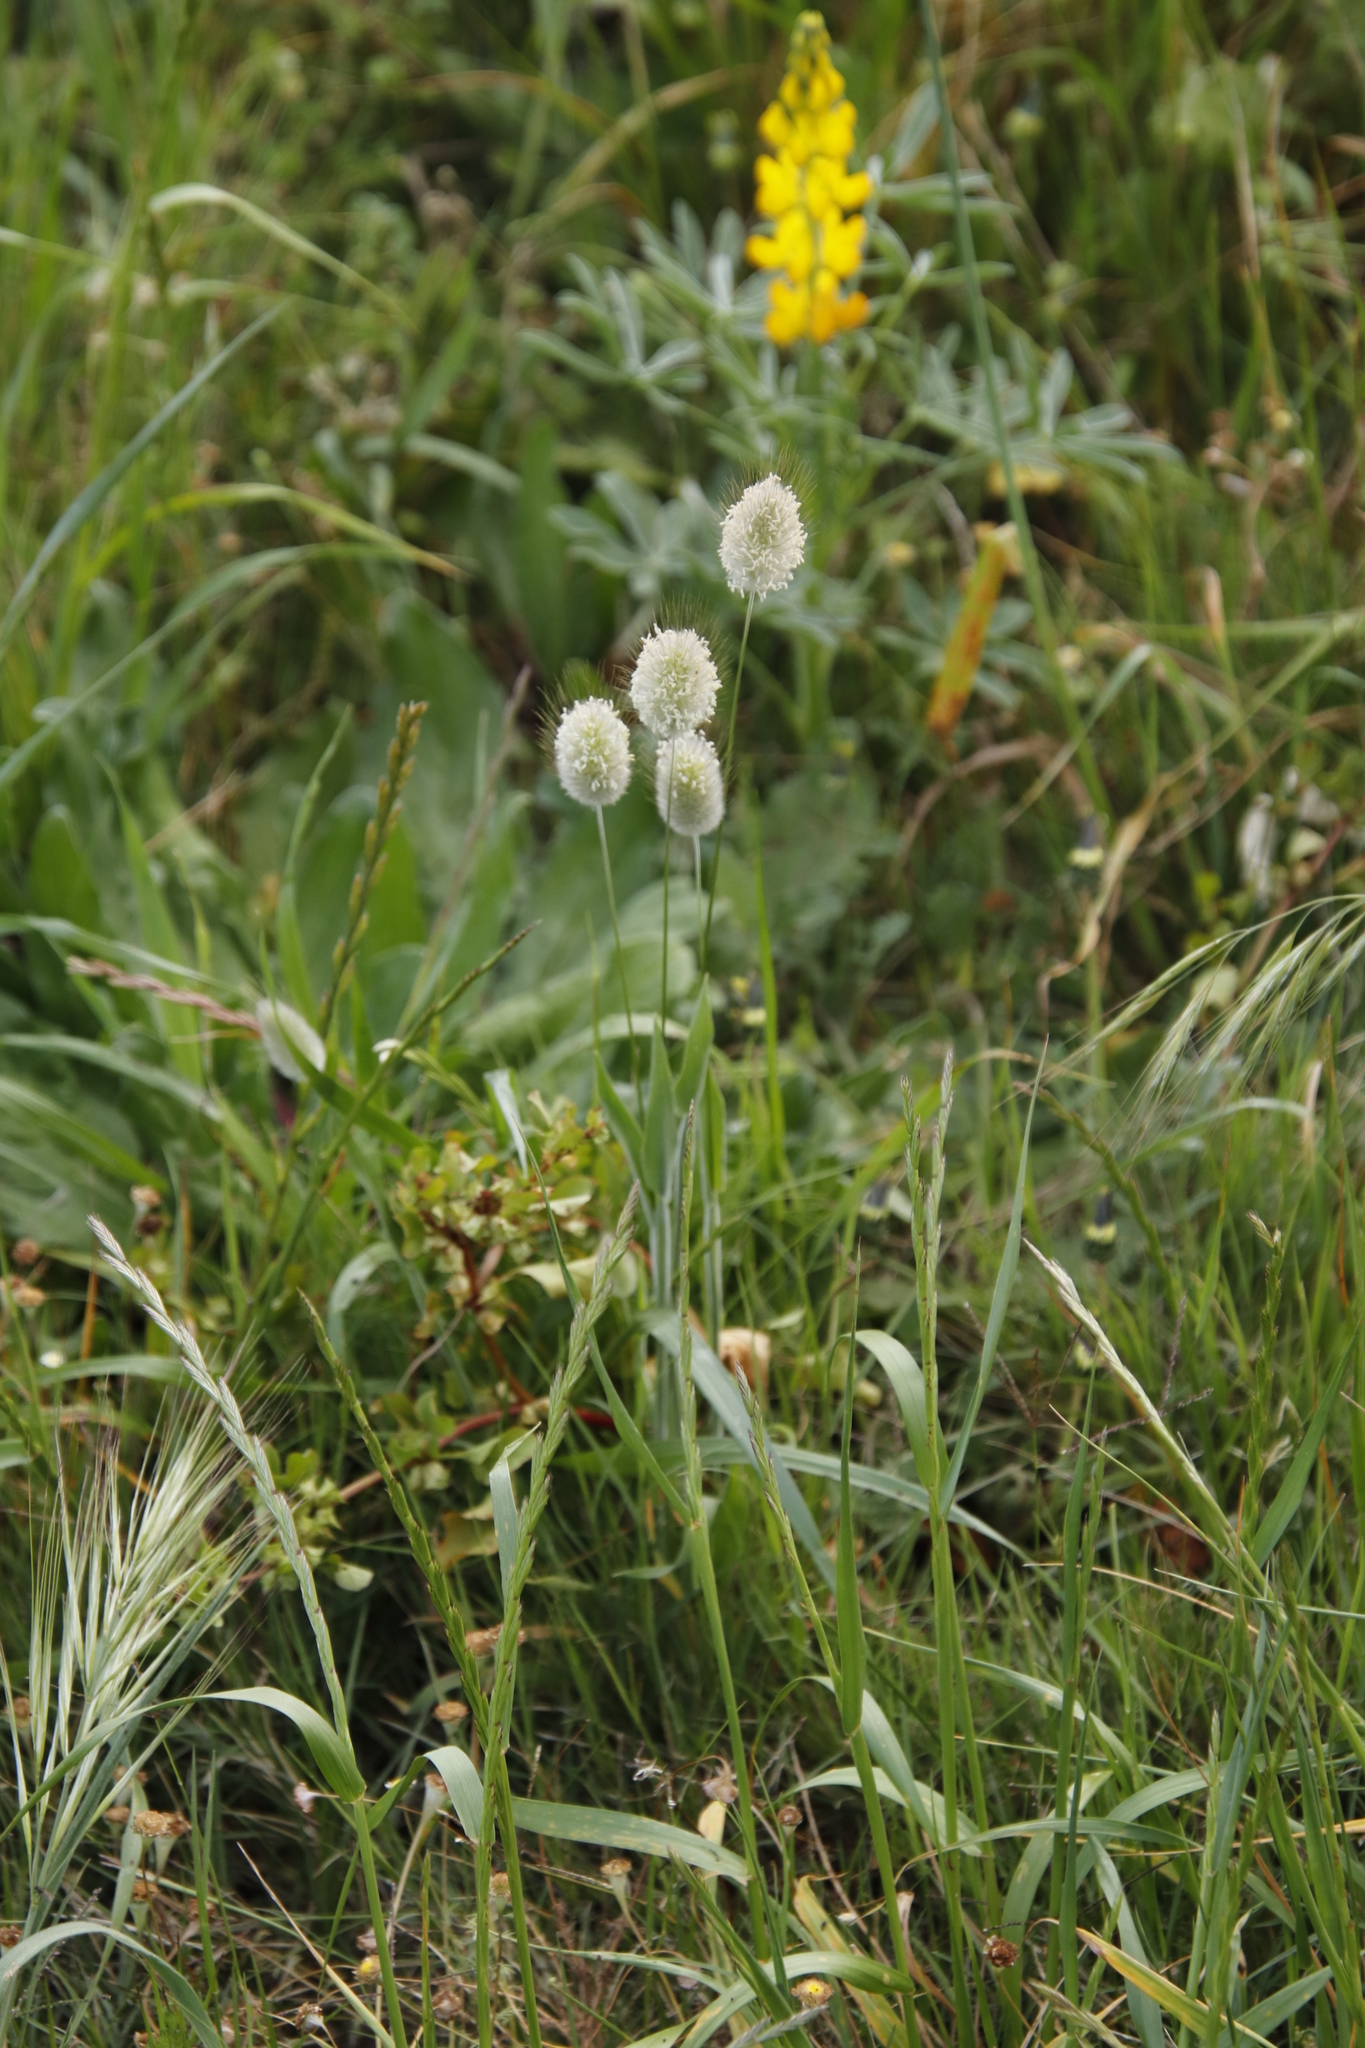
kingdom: Plantae
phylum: Tracheophyta
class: Liliopsida
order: Poales
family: Poaceae
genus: Lagurus
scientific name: Lagurus ovatus
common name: Hare's-tail
